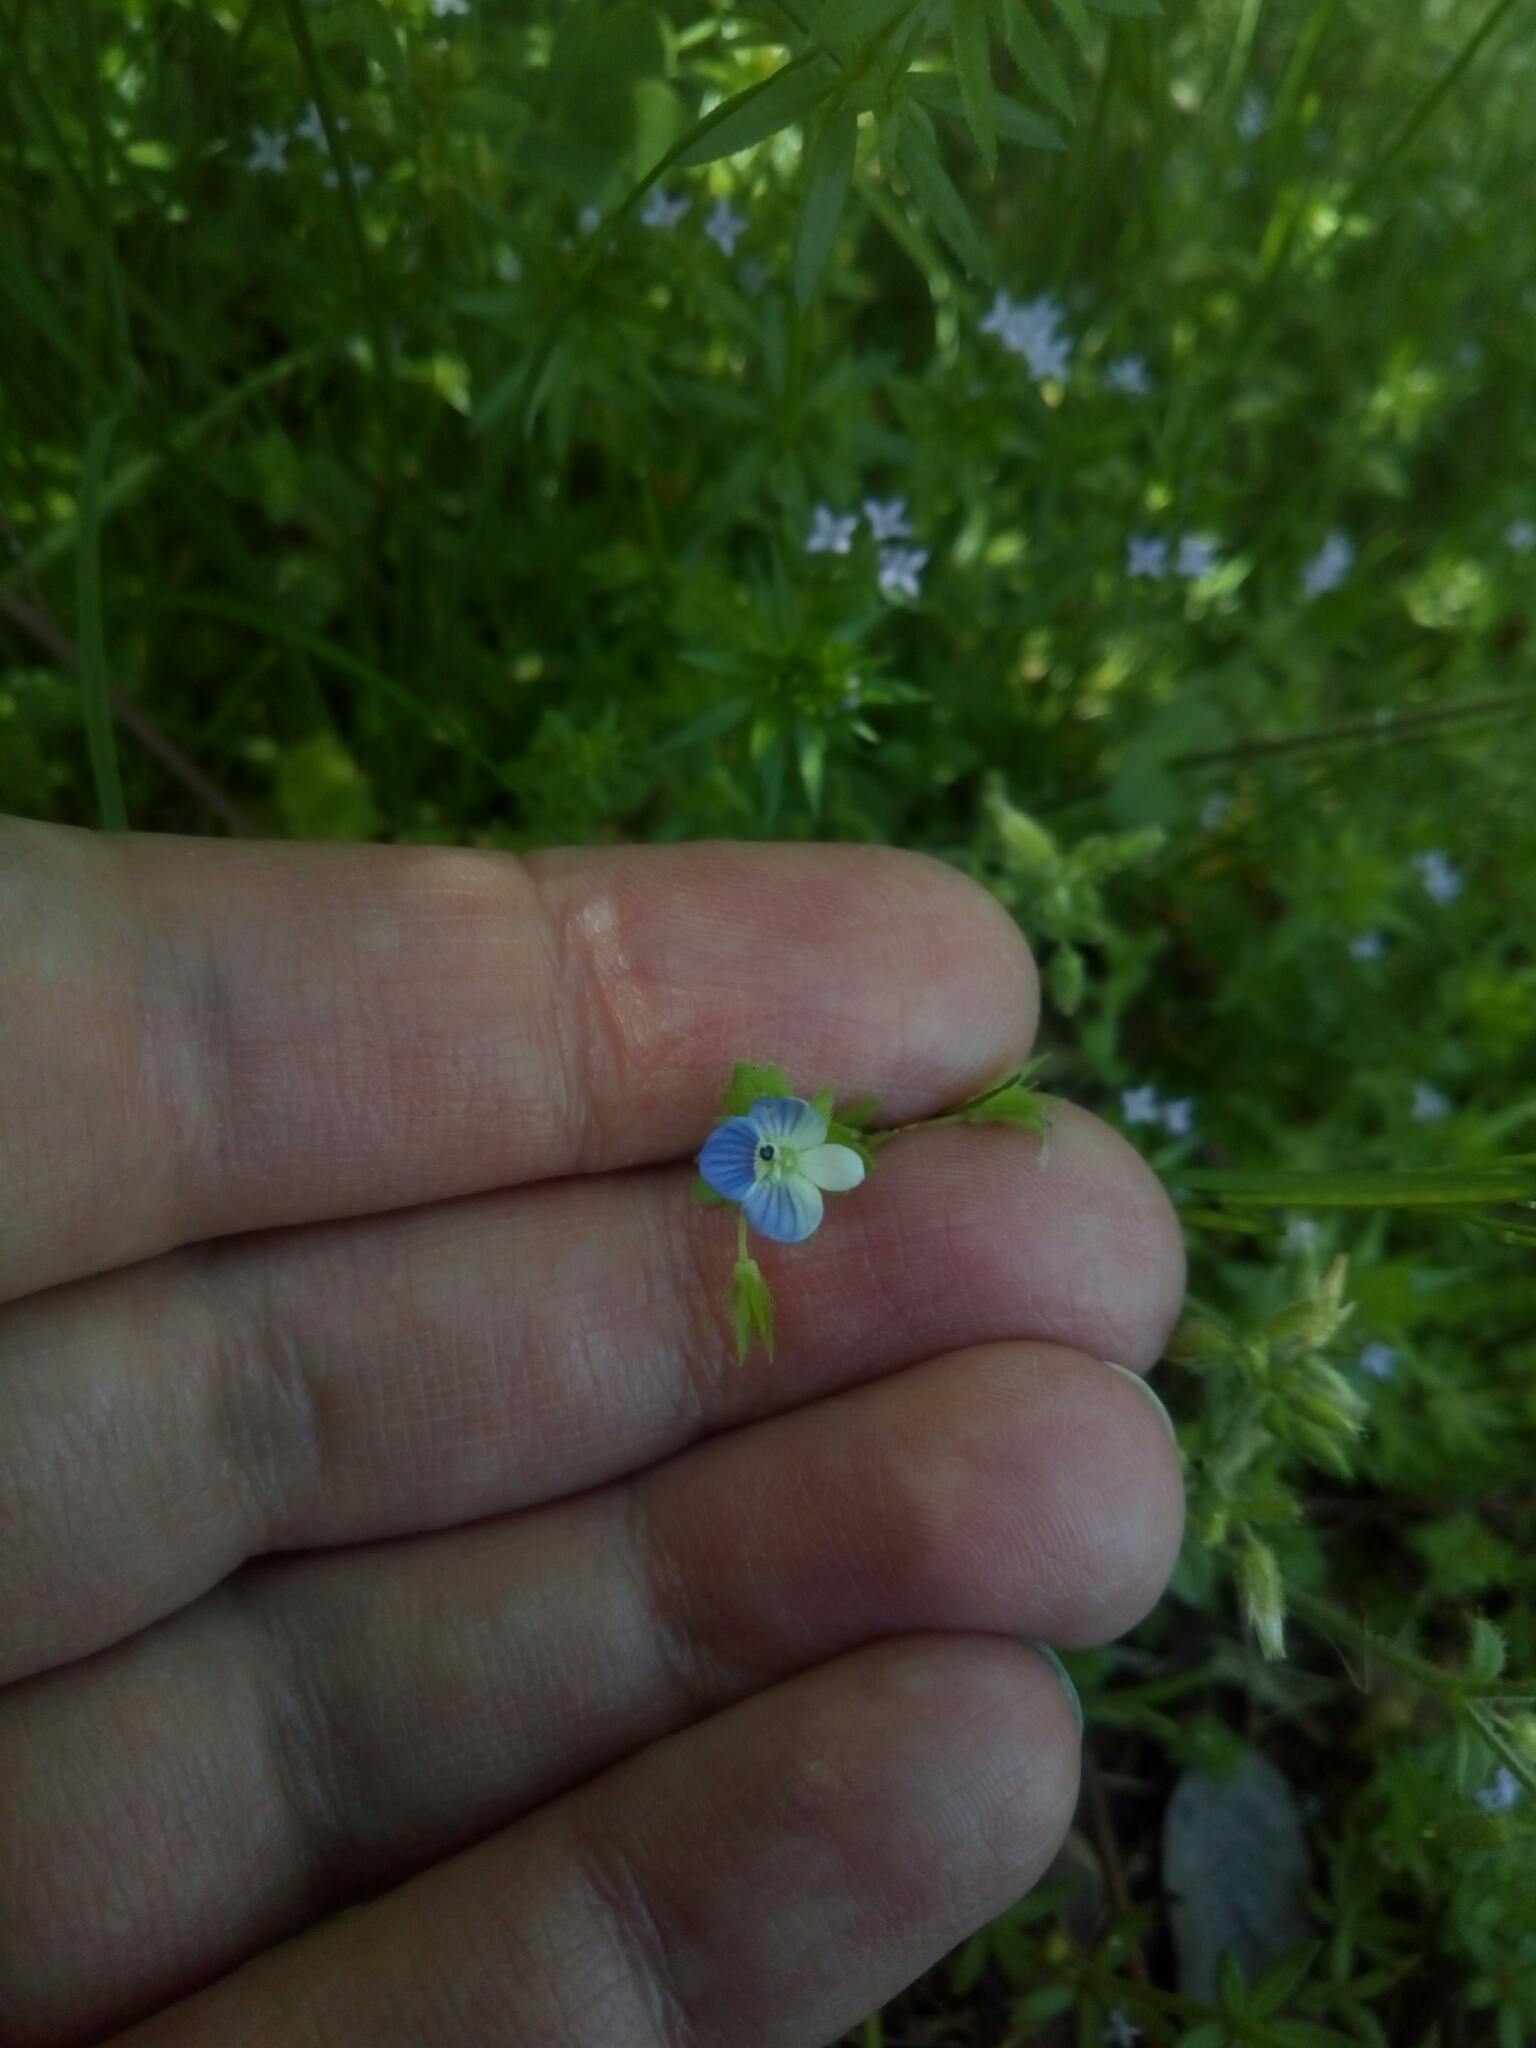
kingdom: Plantae
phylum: Tracheophyta
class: Magnoliopsida
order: Lamiales
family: Plantaginaceae
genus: Veronica
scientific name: Veronica persica
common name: Common field-speedwell
